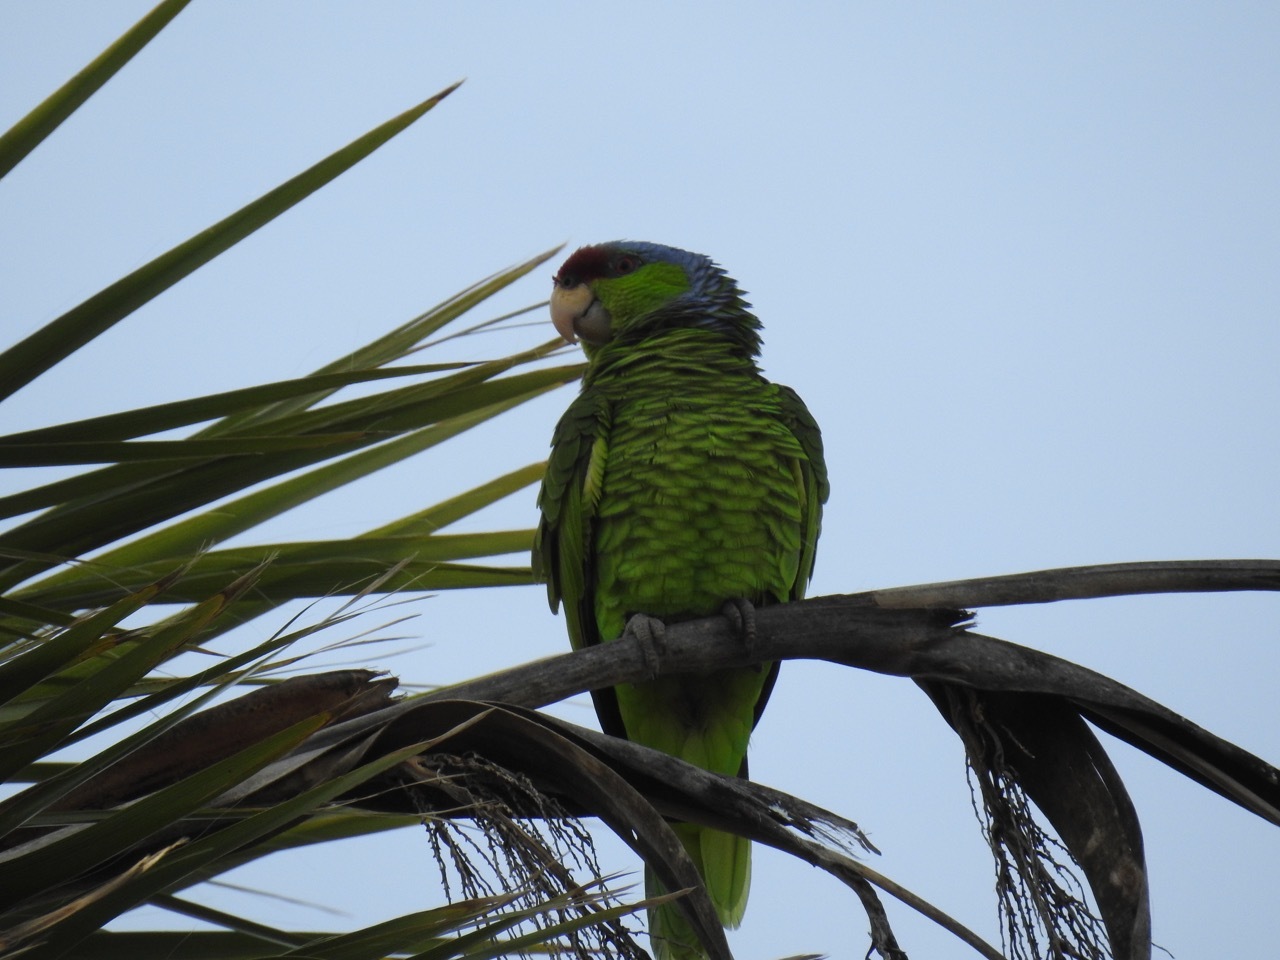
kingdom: Animalia
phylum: Chordata
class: Aves
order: Psittaciformes
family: Psittacidae
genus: Amazona
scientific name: Amazona finschi
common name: Lilac-crowned amazon
